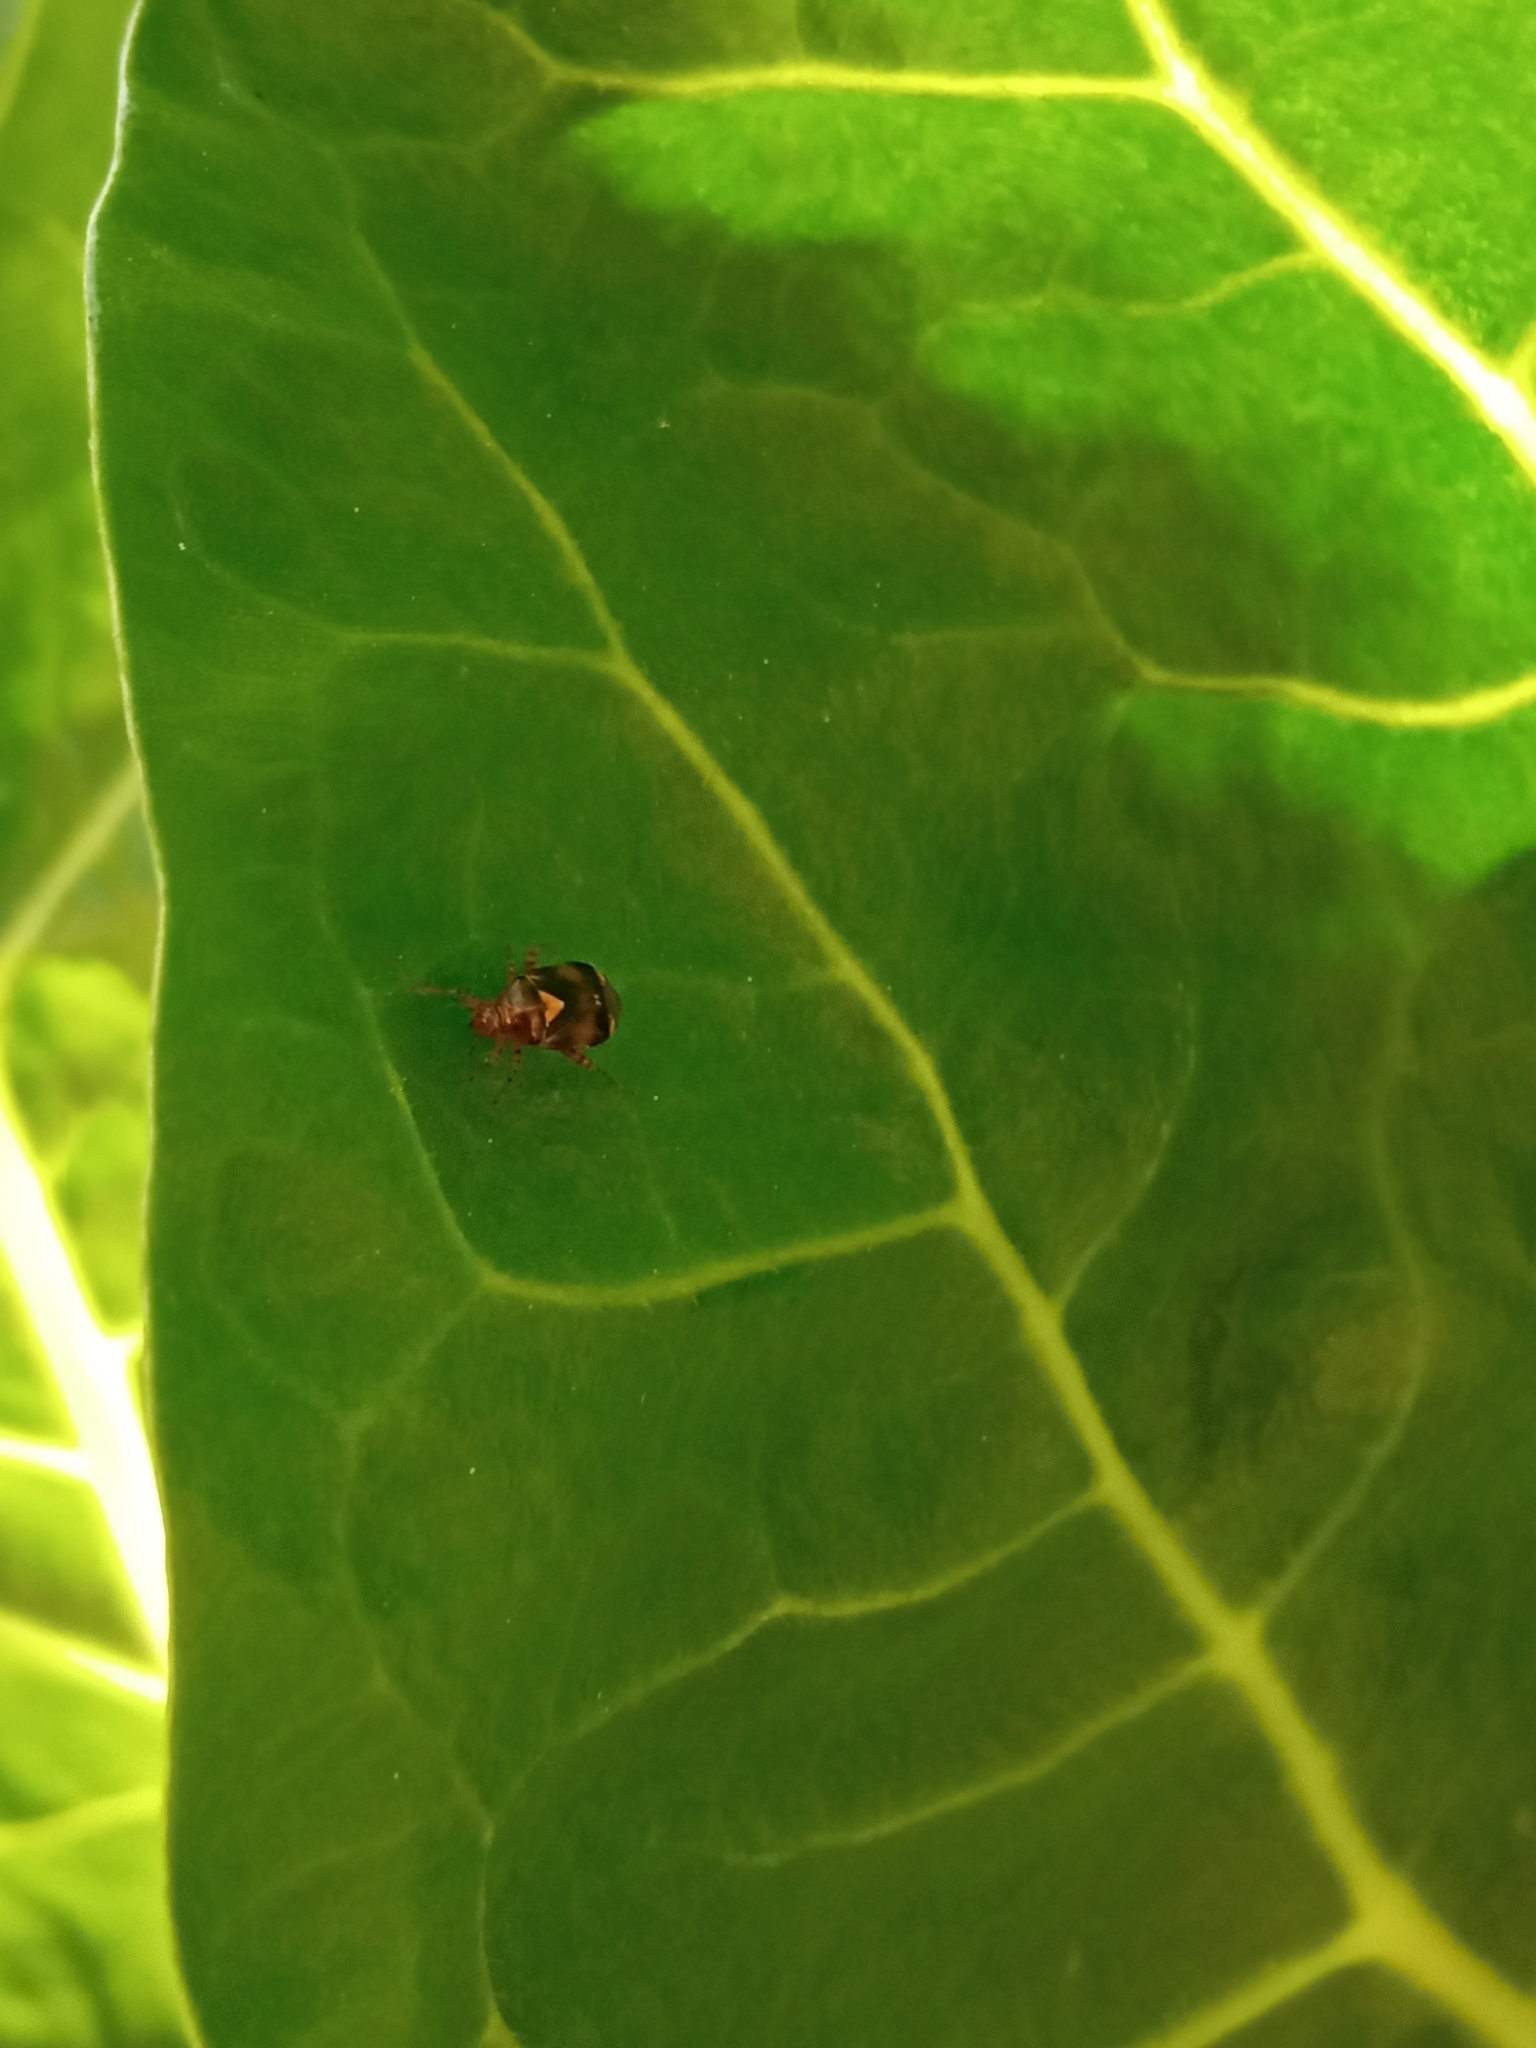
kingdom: Animalia
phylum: Arthropoda
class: Insecta
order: Hemiptera
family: Miridae
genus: Liocoris
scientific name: Liocoris tripustulatus
